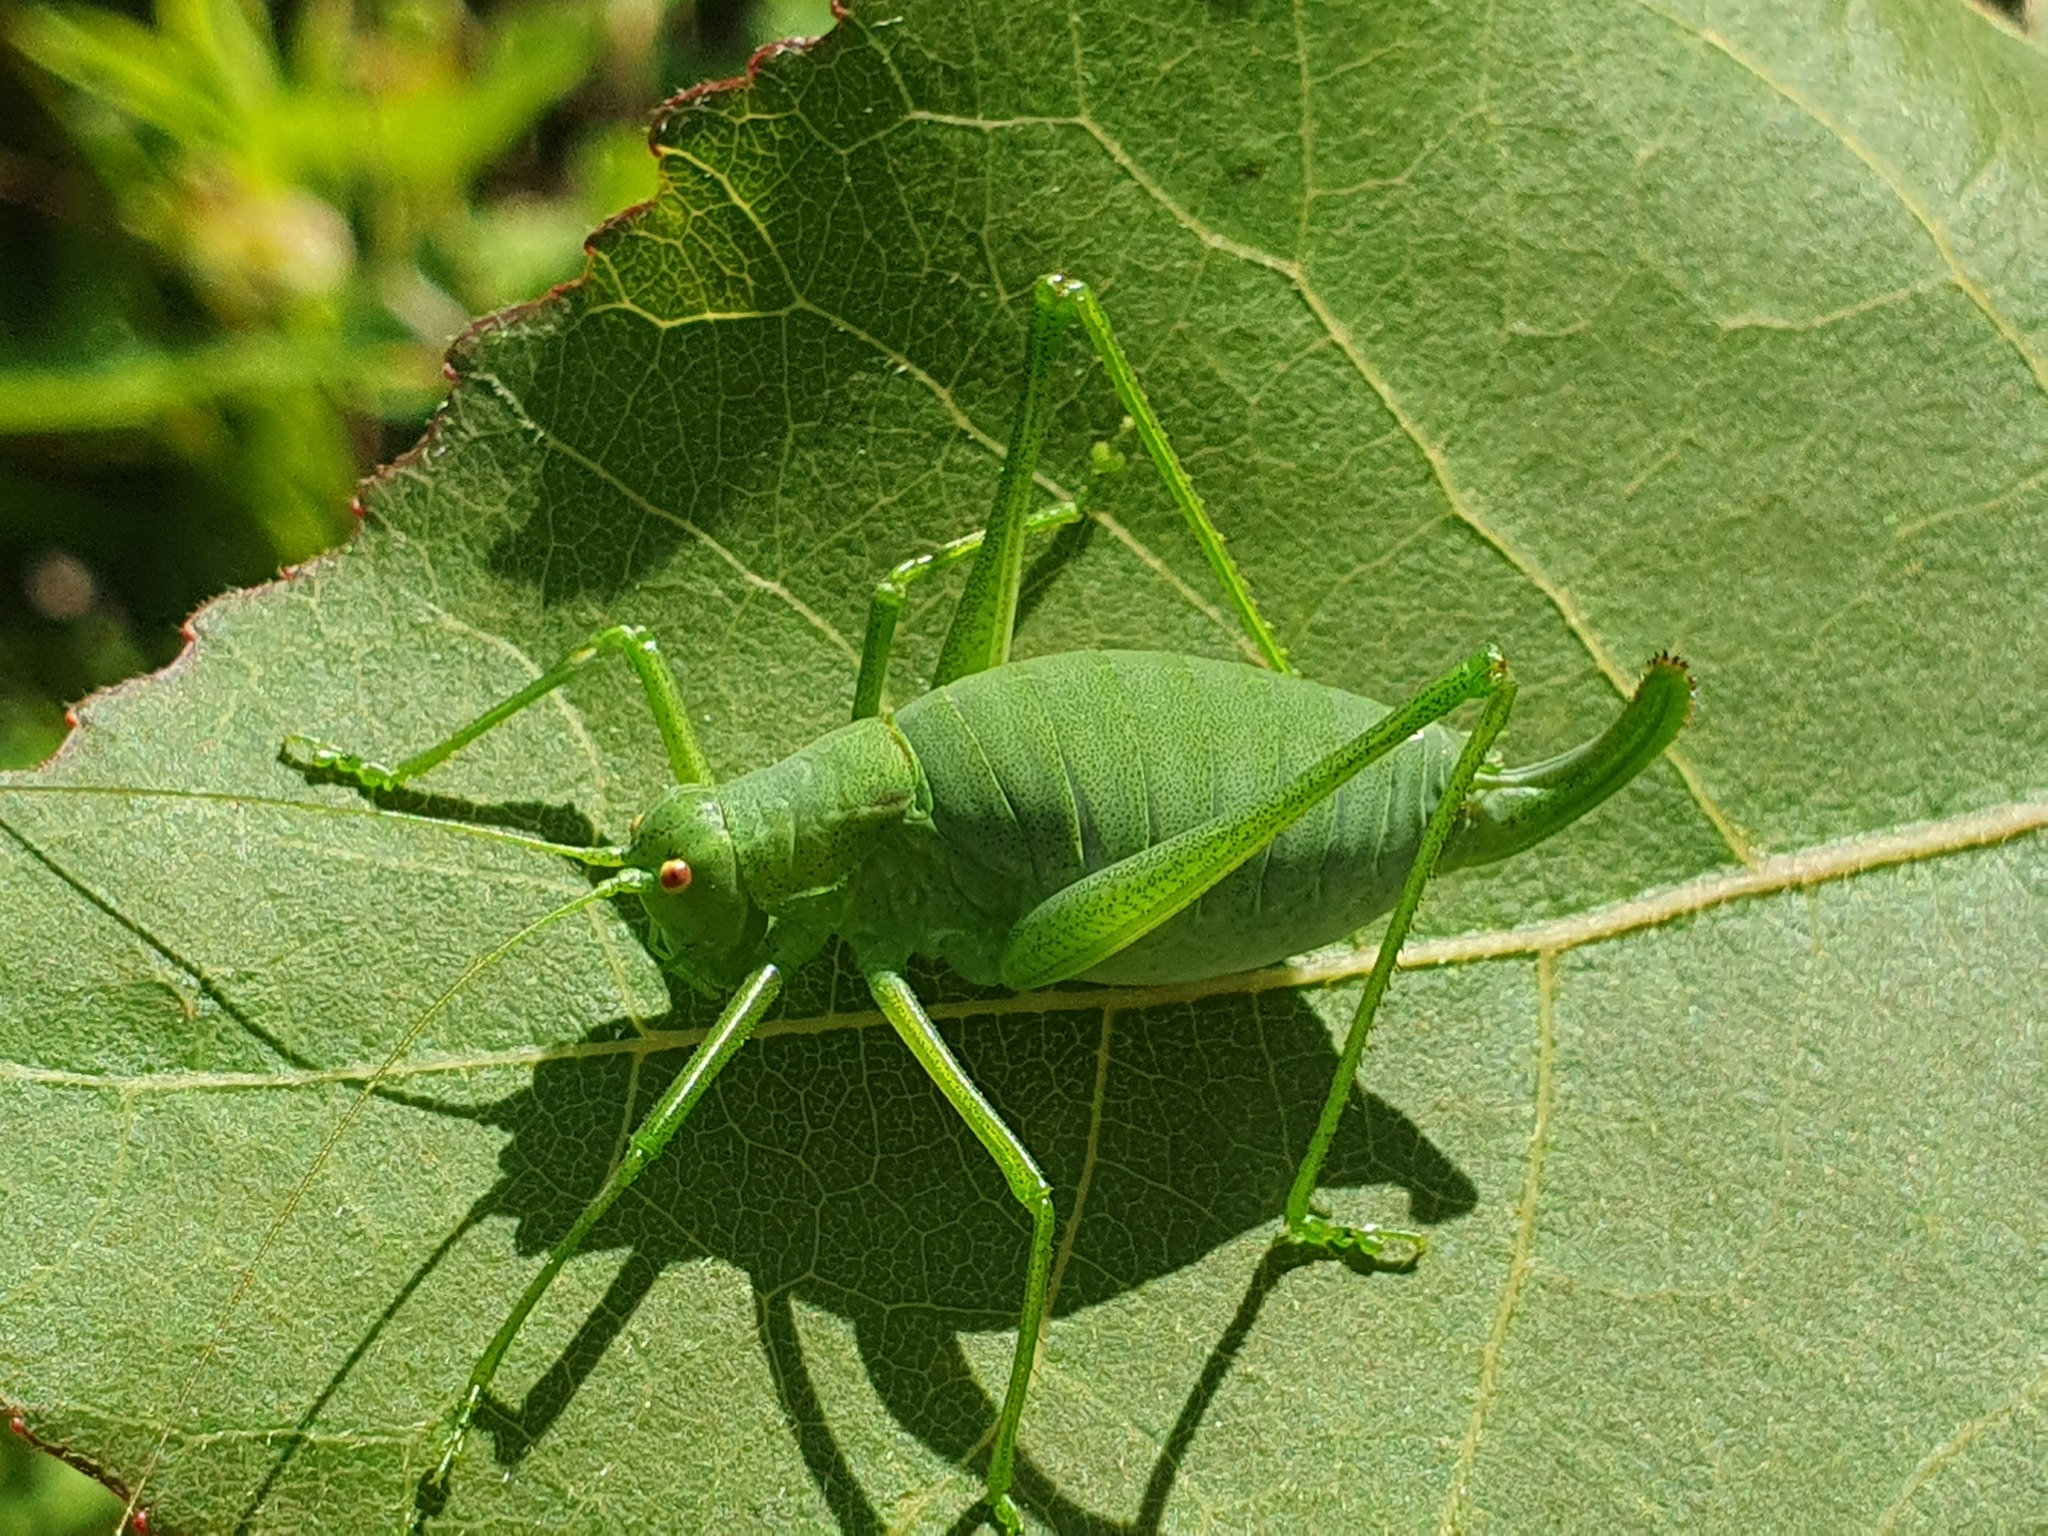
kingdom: Animalia
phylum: Arthropoda
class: Insecta
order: Orthoptera
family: Tettigoniidae
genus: Isophya
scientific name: Isophya kraussii
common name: Krauss's plump bush-cricket
